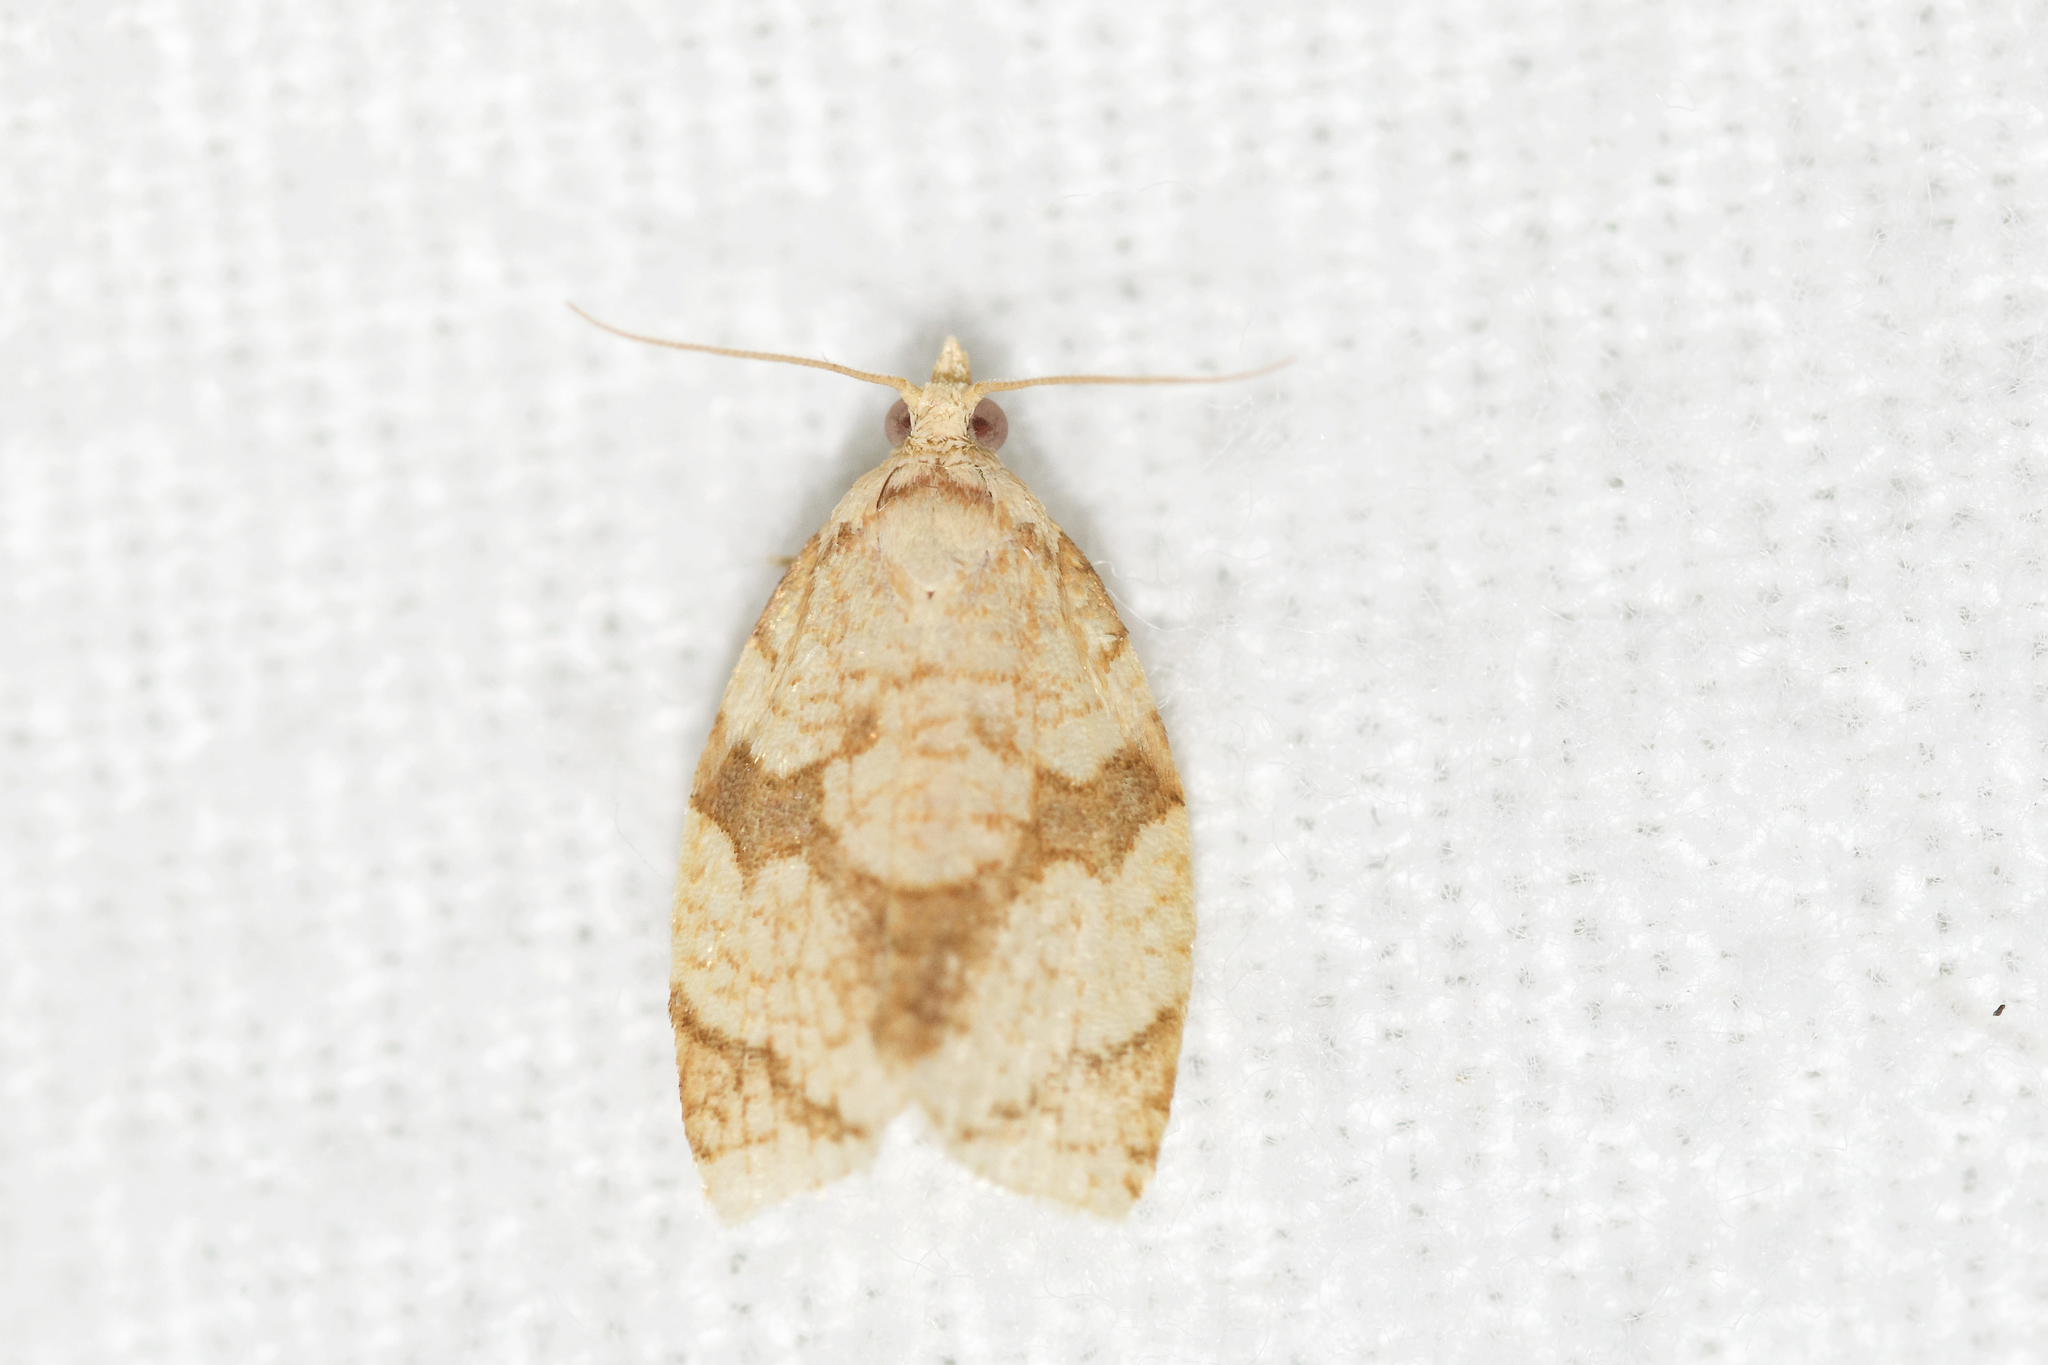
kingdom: Animalia
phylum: Arthropoda
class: Insecta
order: Lepidoptera
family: Tortricidae
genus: Adoxophyes
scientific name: Adoxophyes negundana
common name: Shimmering gold adoxophyes moth
